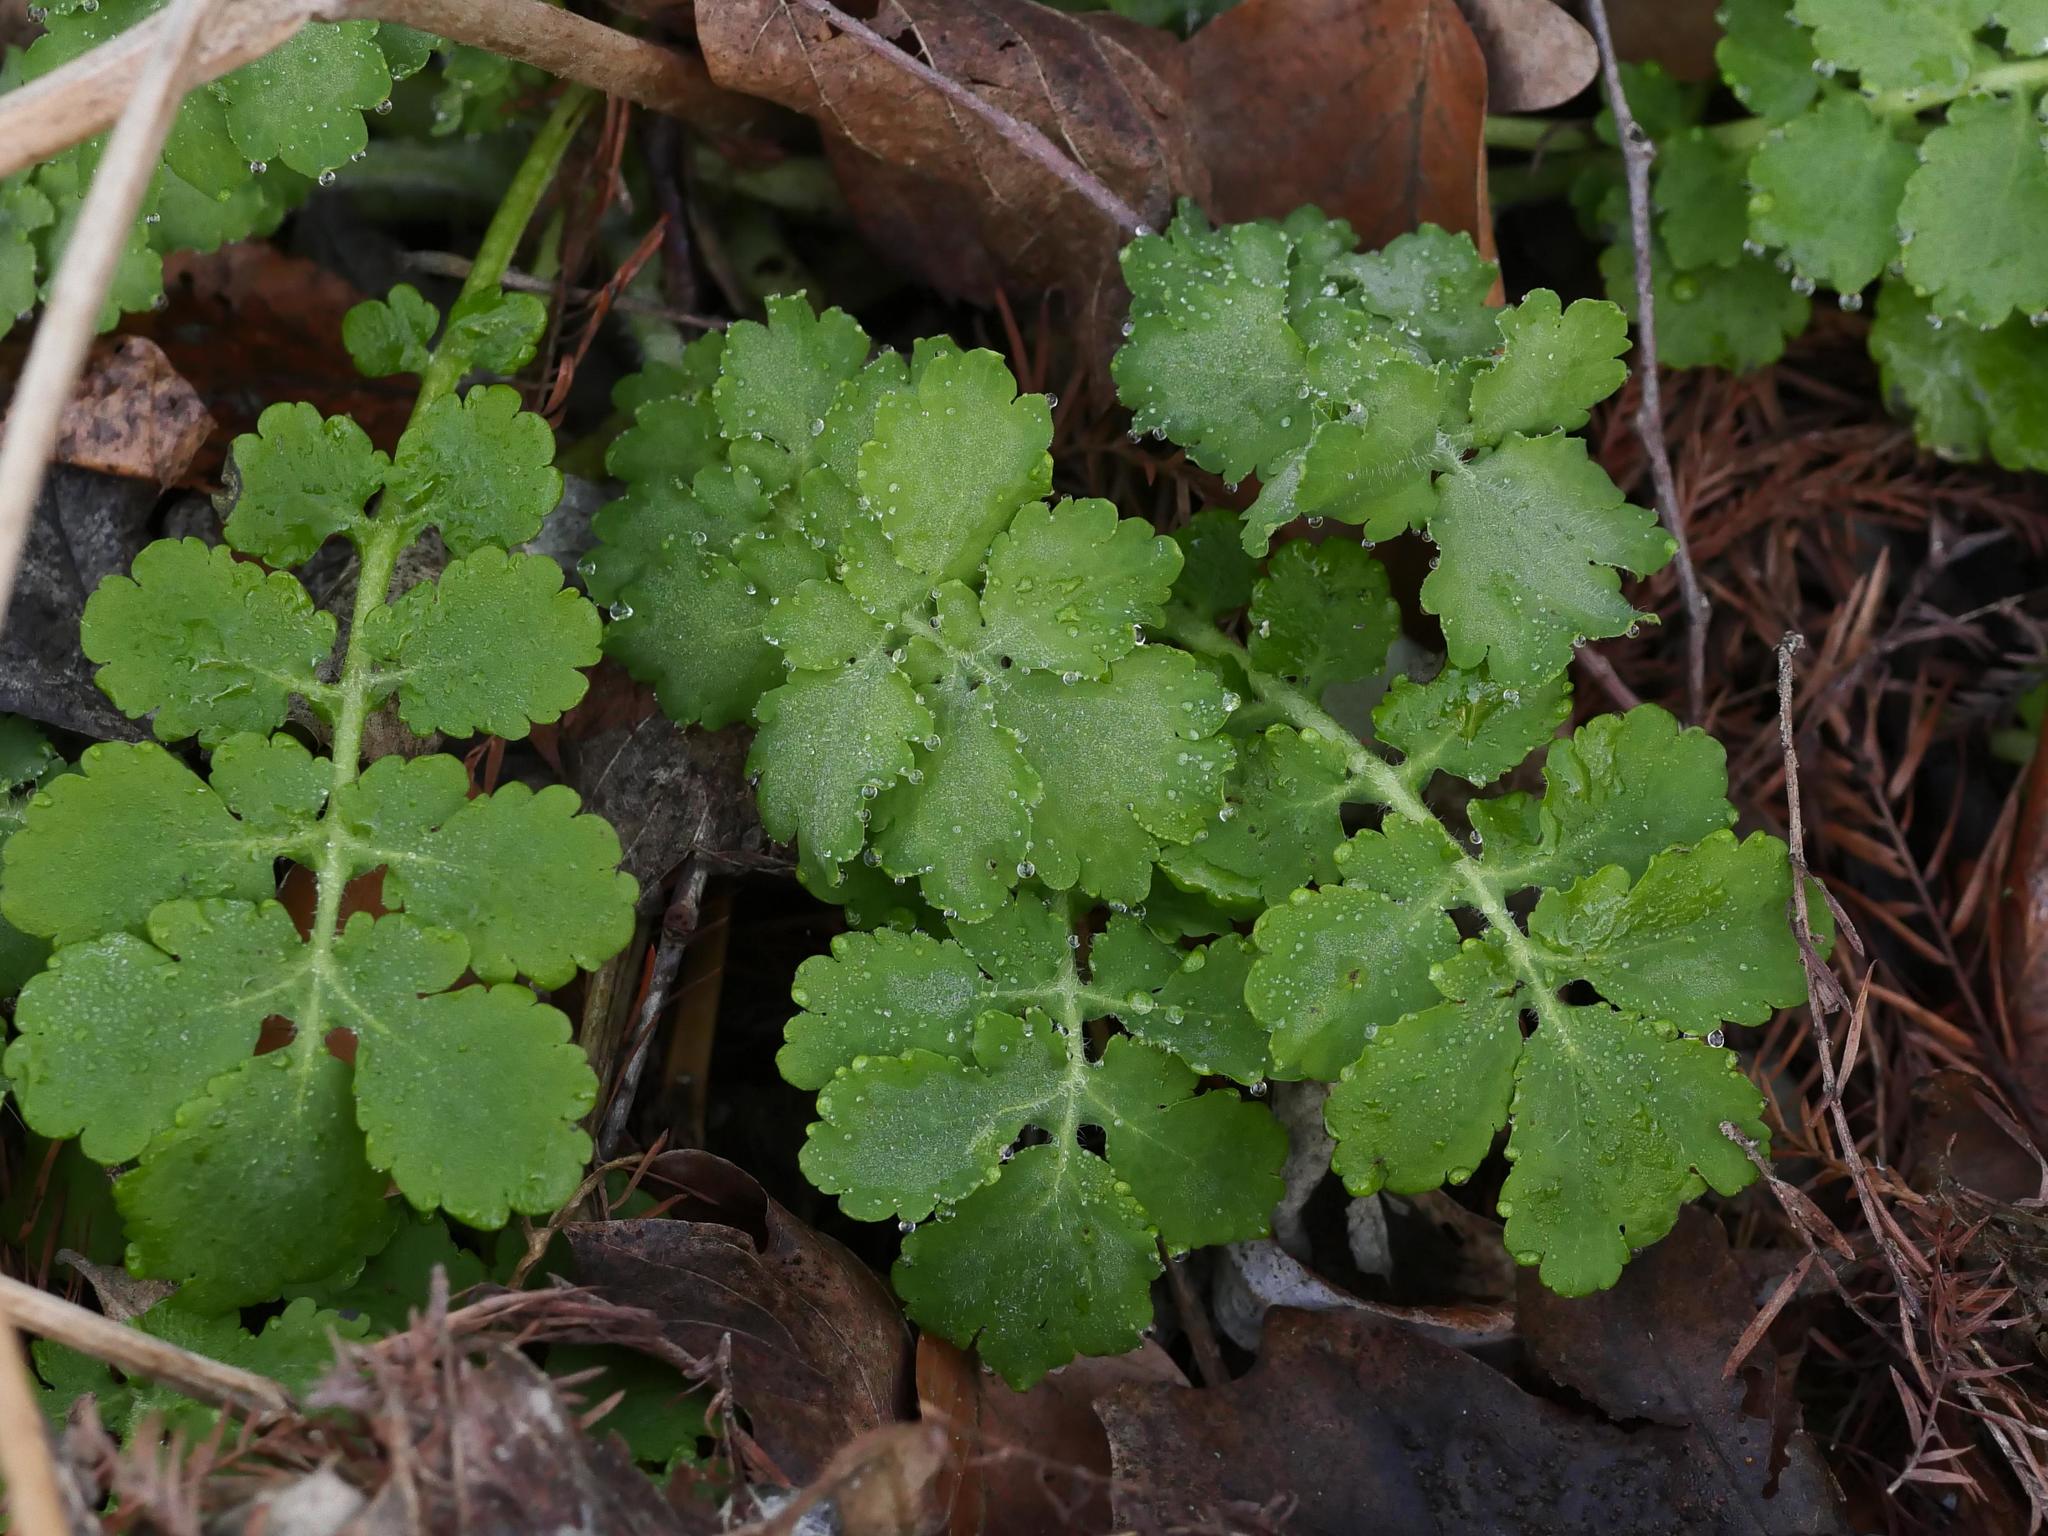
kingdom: Plantae
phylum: Tracheophyta
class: Magnoliopsida
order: Ranunculales
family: Papaveraceae
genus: Chelidonium
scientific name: Chelidonium majus
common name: Greater celandine
